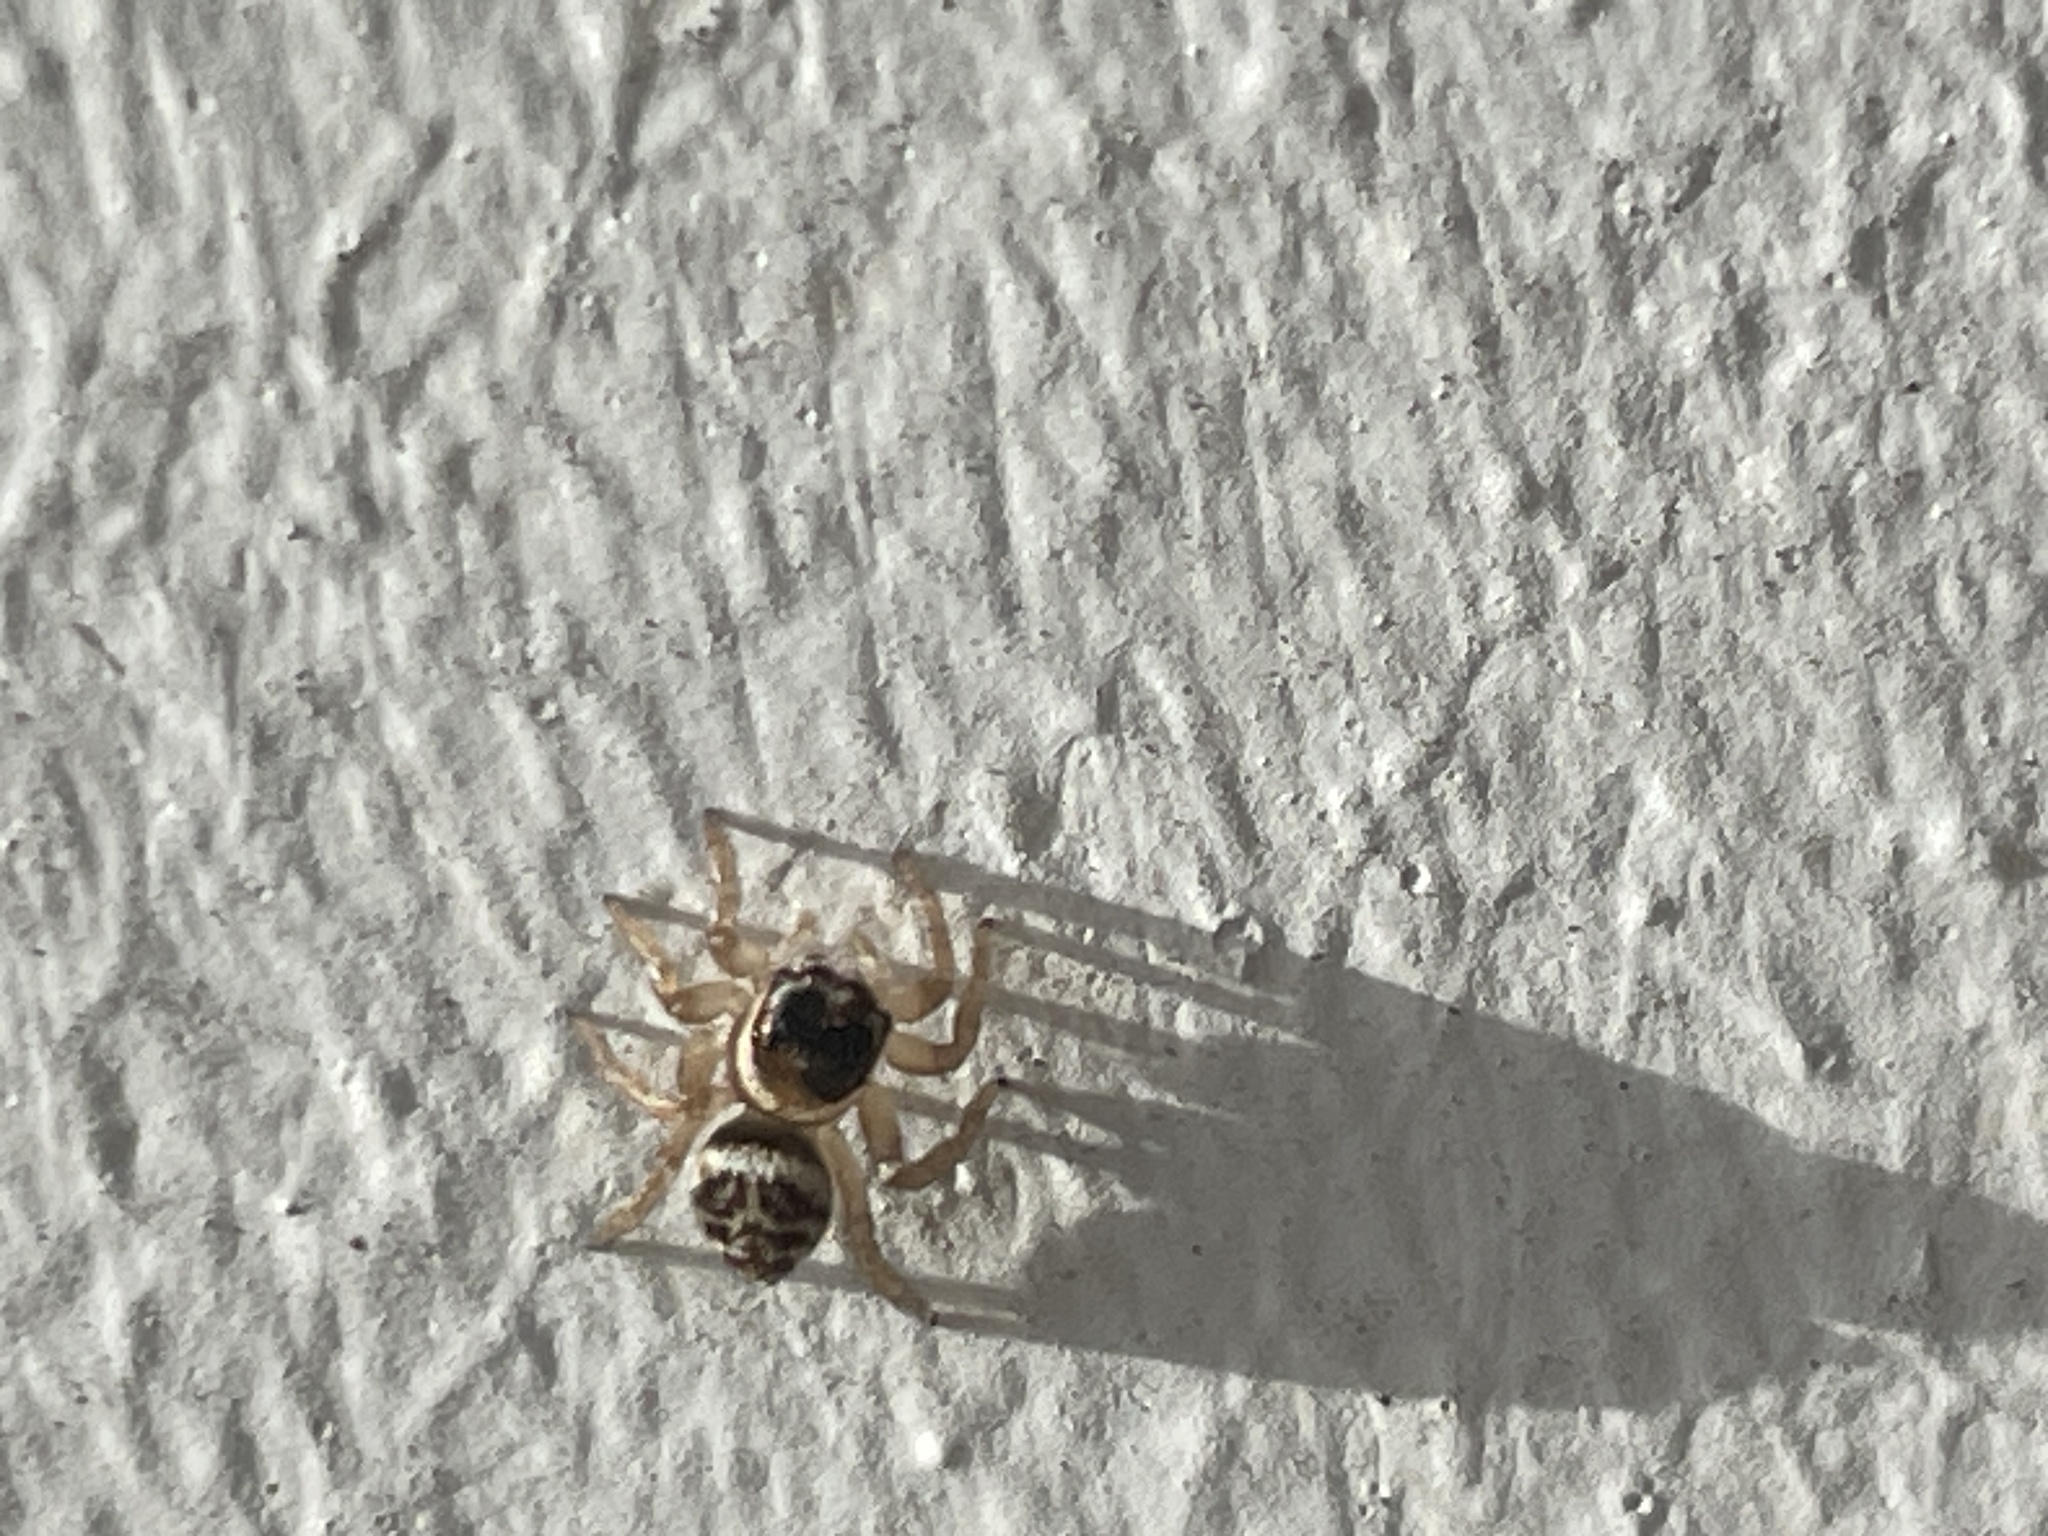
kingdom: Animalia
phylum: Arthropoda
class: Arachnida
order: Araneae
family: Salticidae
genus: Maratus
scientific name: Maratus griseus
